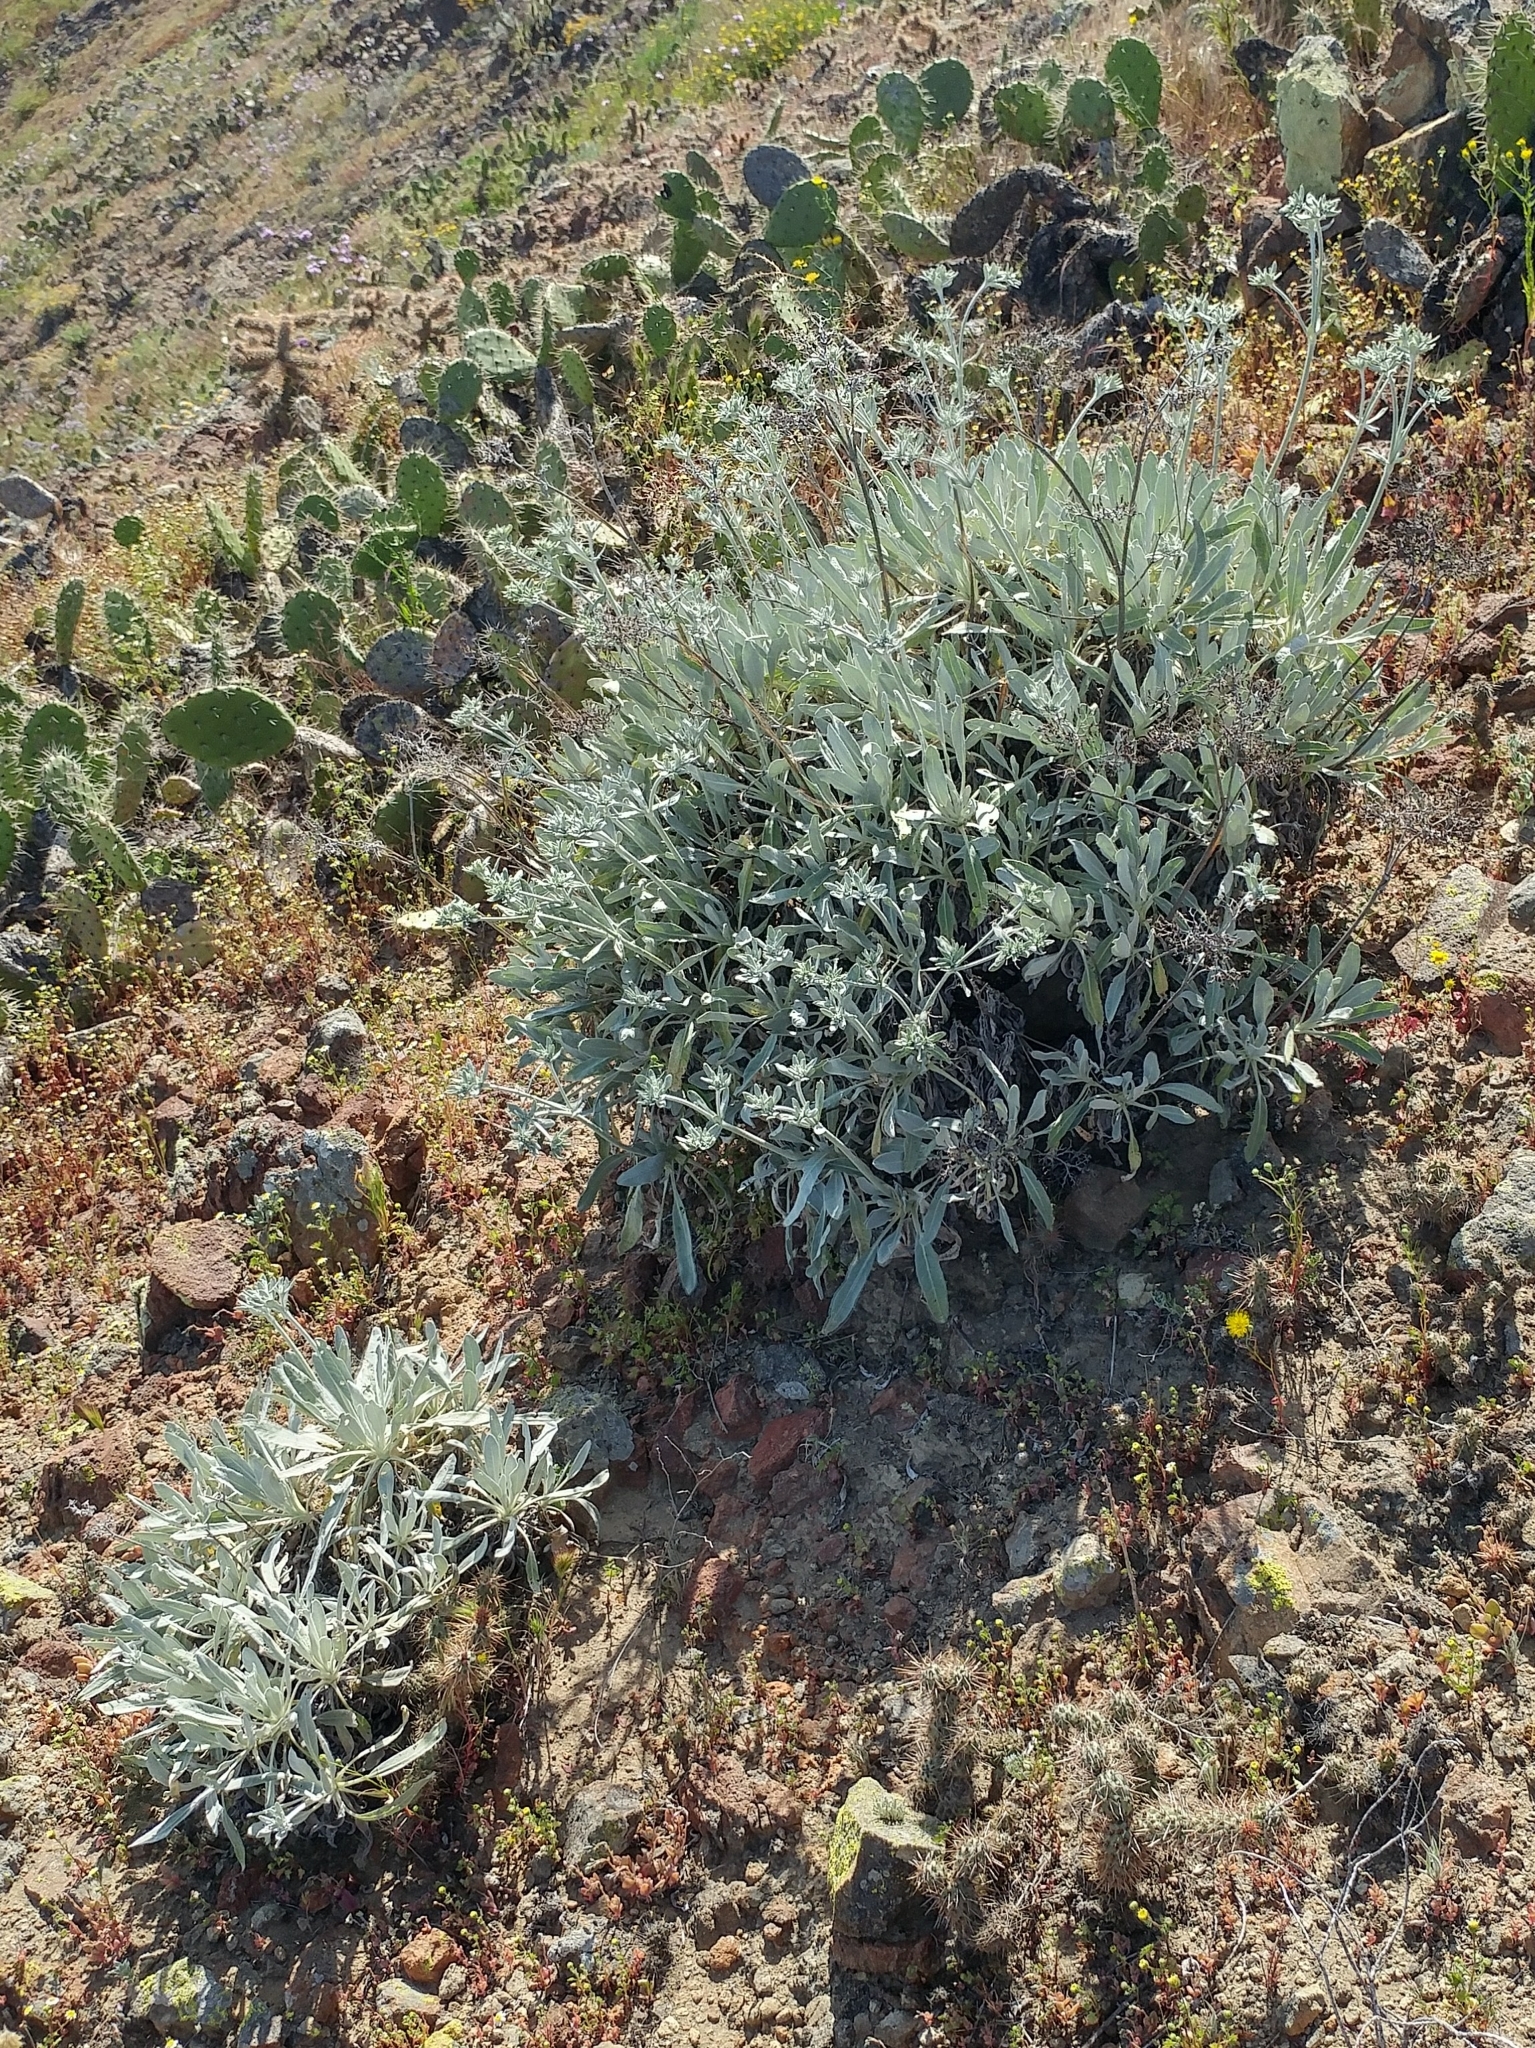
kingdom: Plantae
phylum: Tracheophyta
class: Magnoliopsida
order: Caryophyllales
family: Polygonaceae
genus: Eriogonum
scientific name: Eriogonum giganteum
